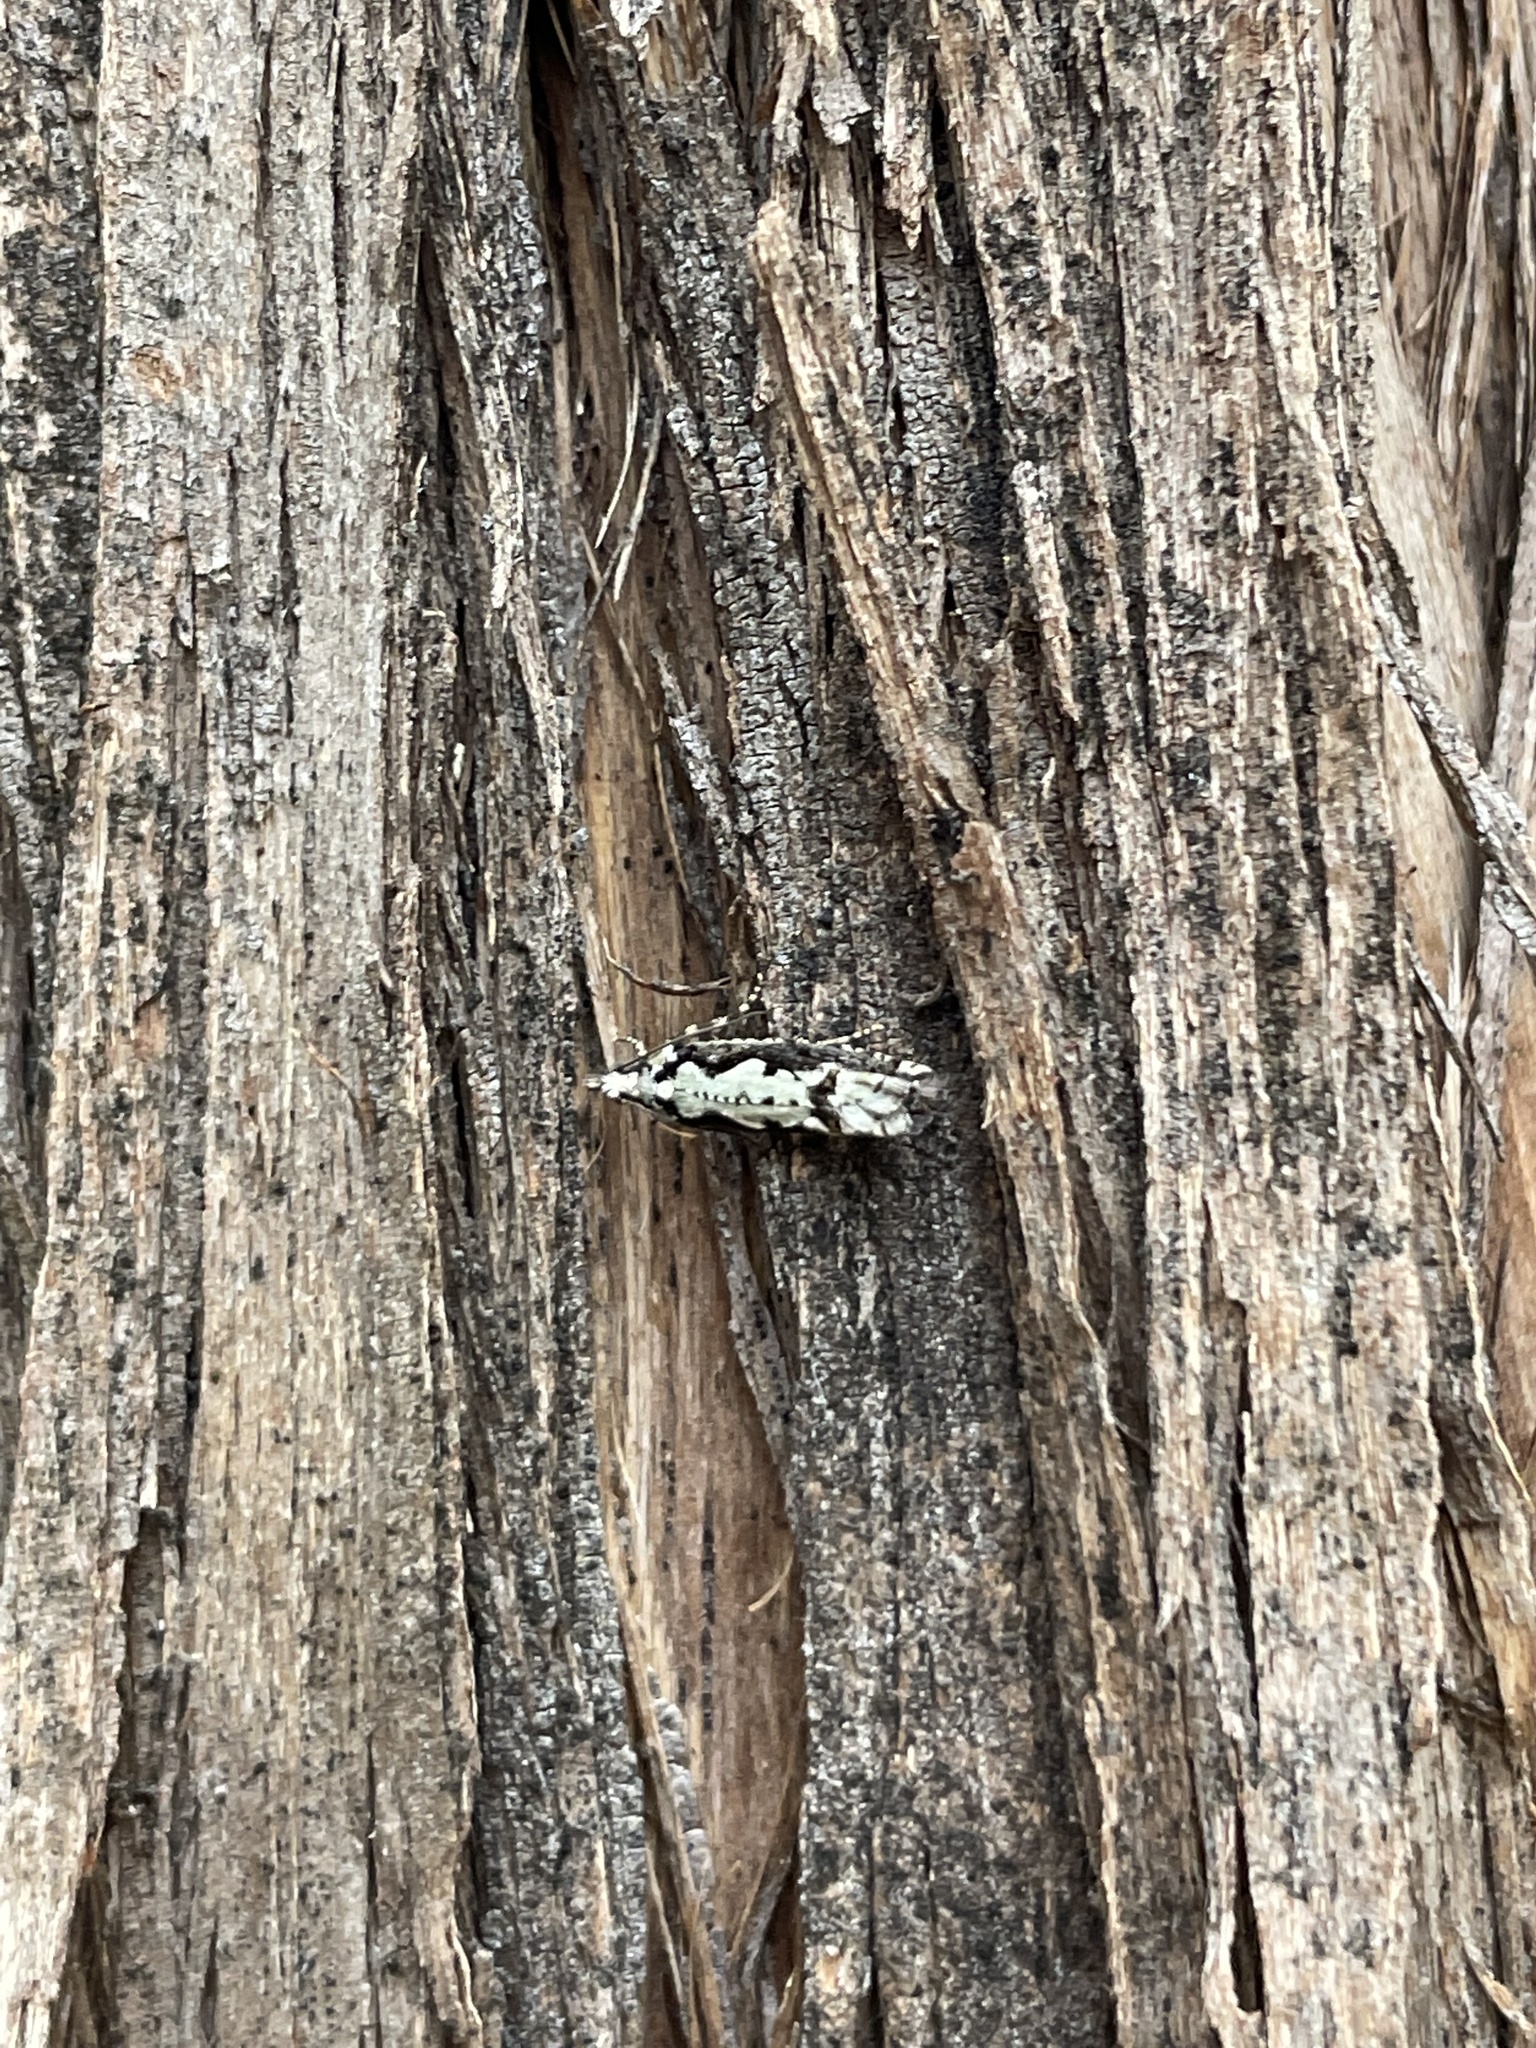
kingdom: Animalia
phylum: Arthropoda
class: Insecta
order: Lepidoptera
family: Tortricidae
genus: Chimoptesis
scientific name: Chimoptesis pennsylvaniana
